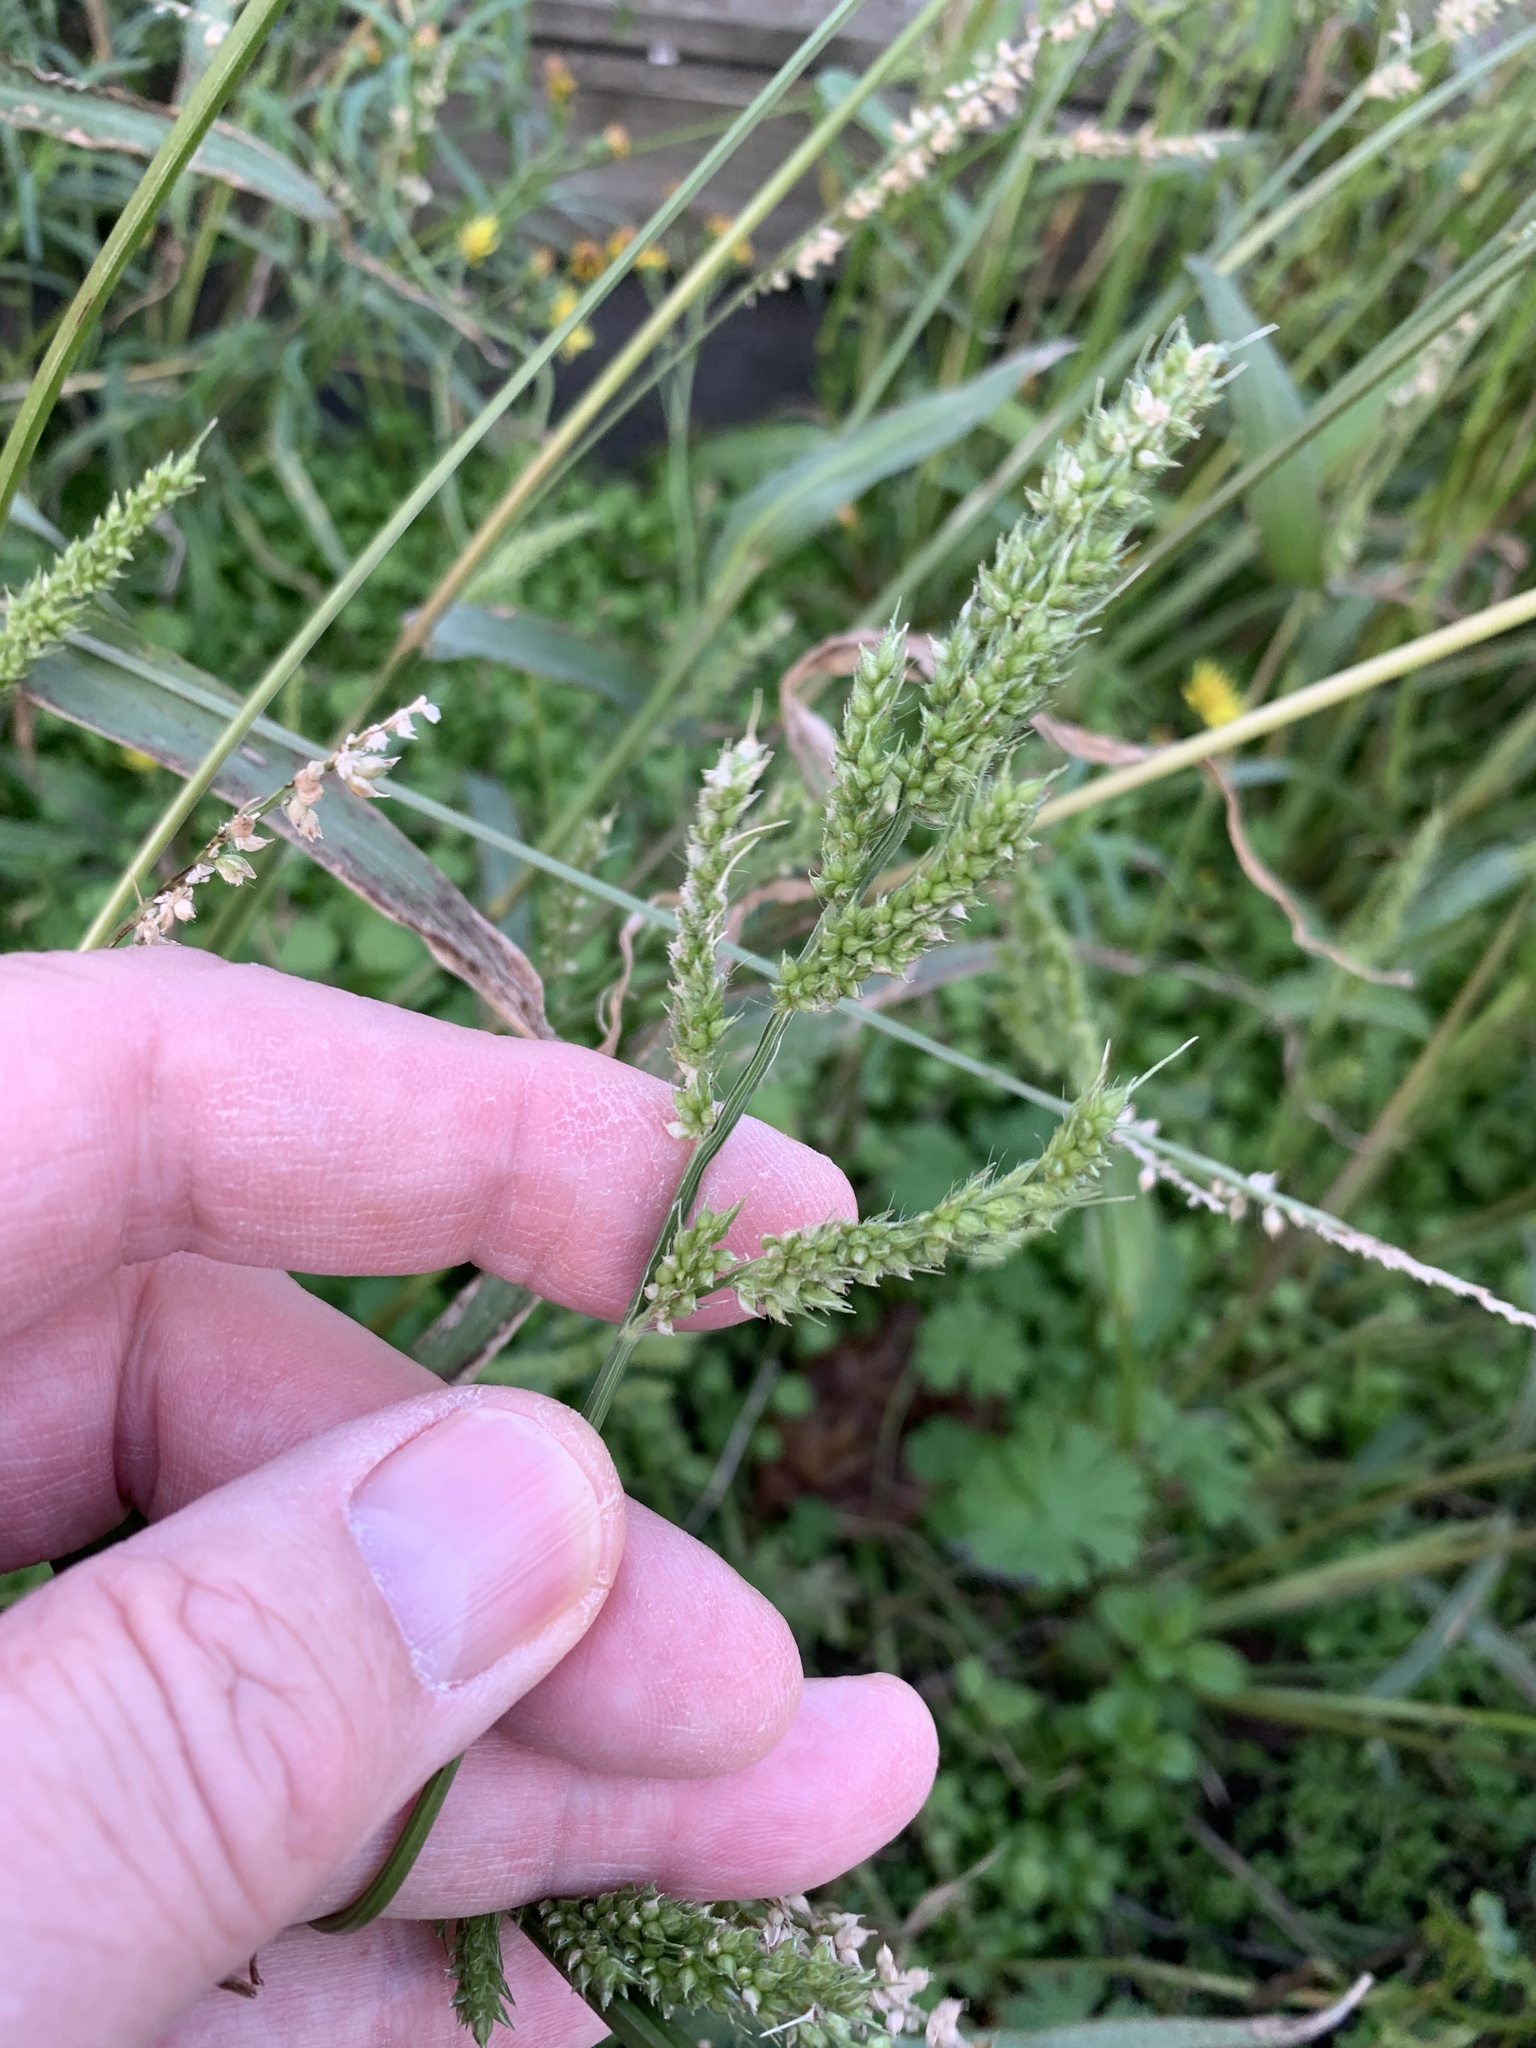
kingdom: Plantae
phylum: Tracheophyta
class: Liliopsida
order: Poales
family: Poaceae
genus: Echinochloa
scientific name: Echinochloa crus-galli
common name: Cockspur
